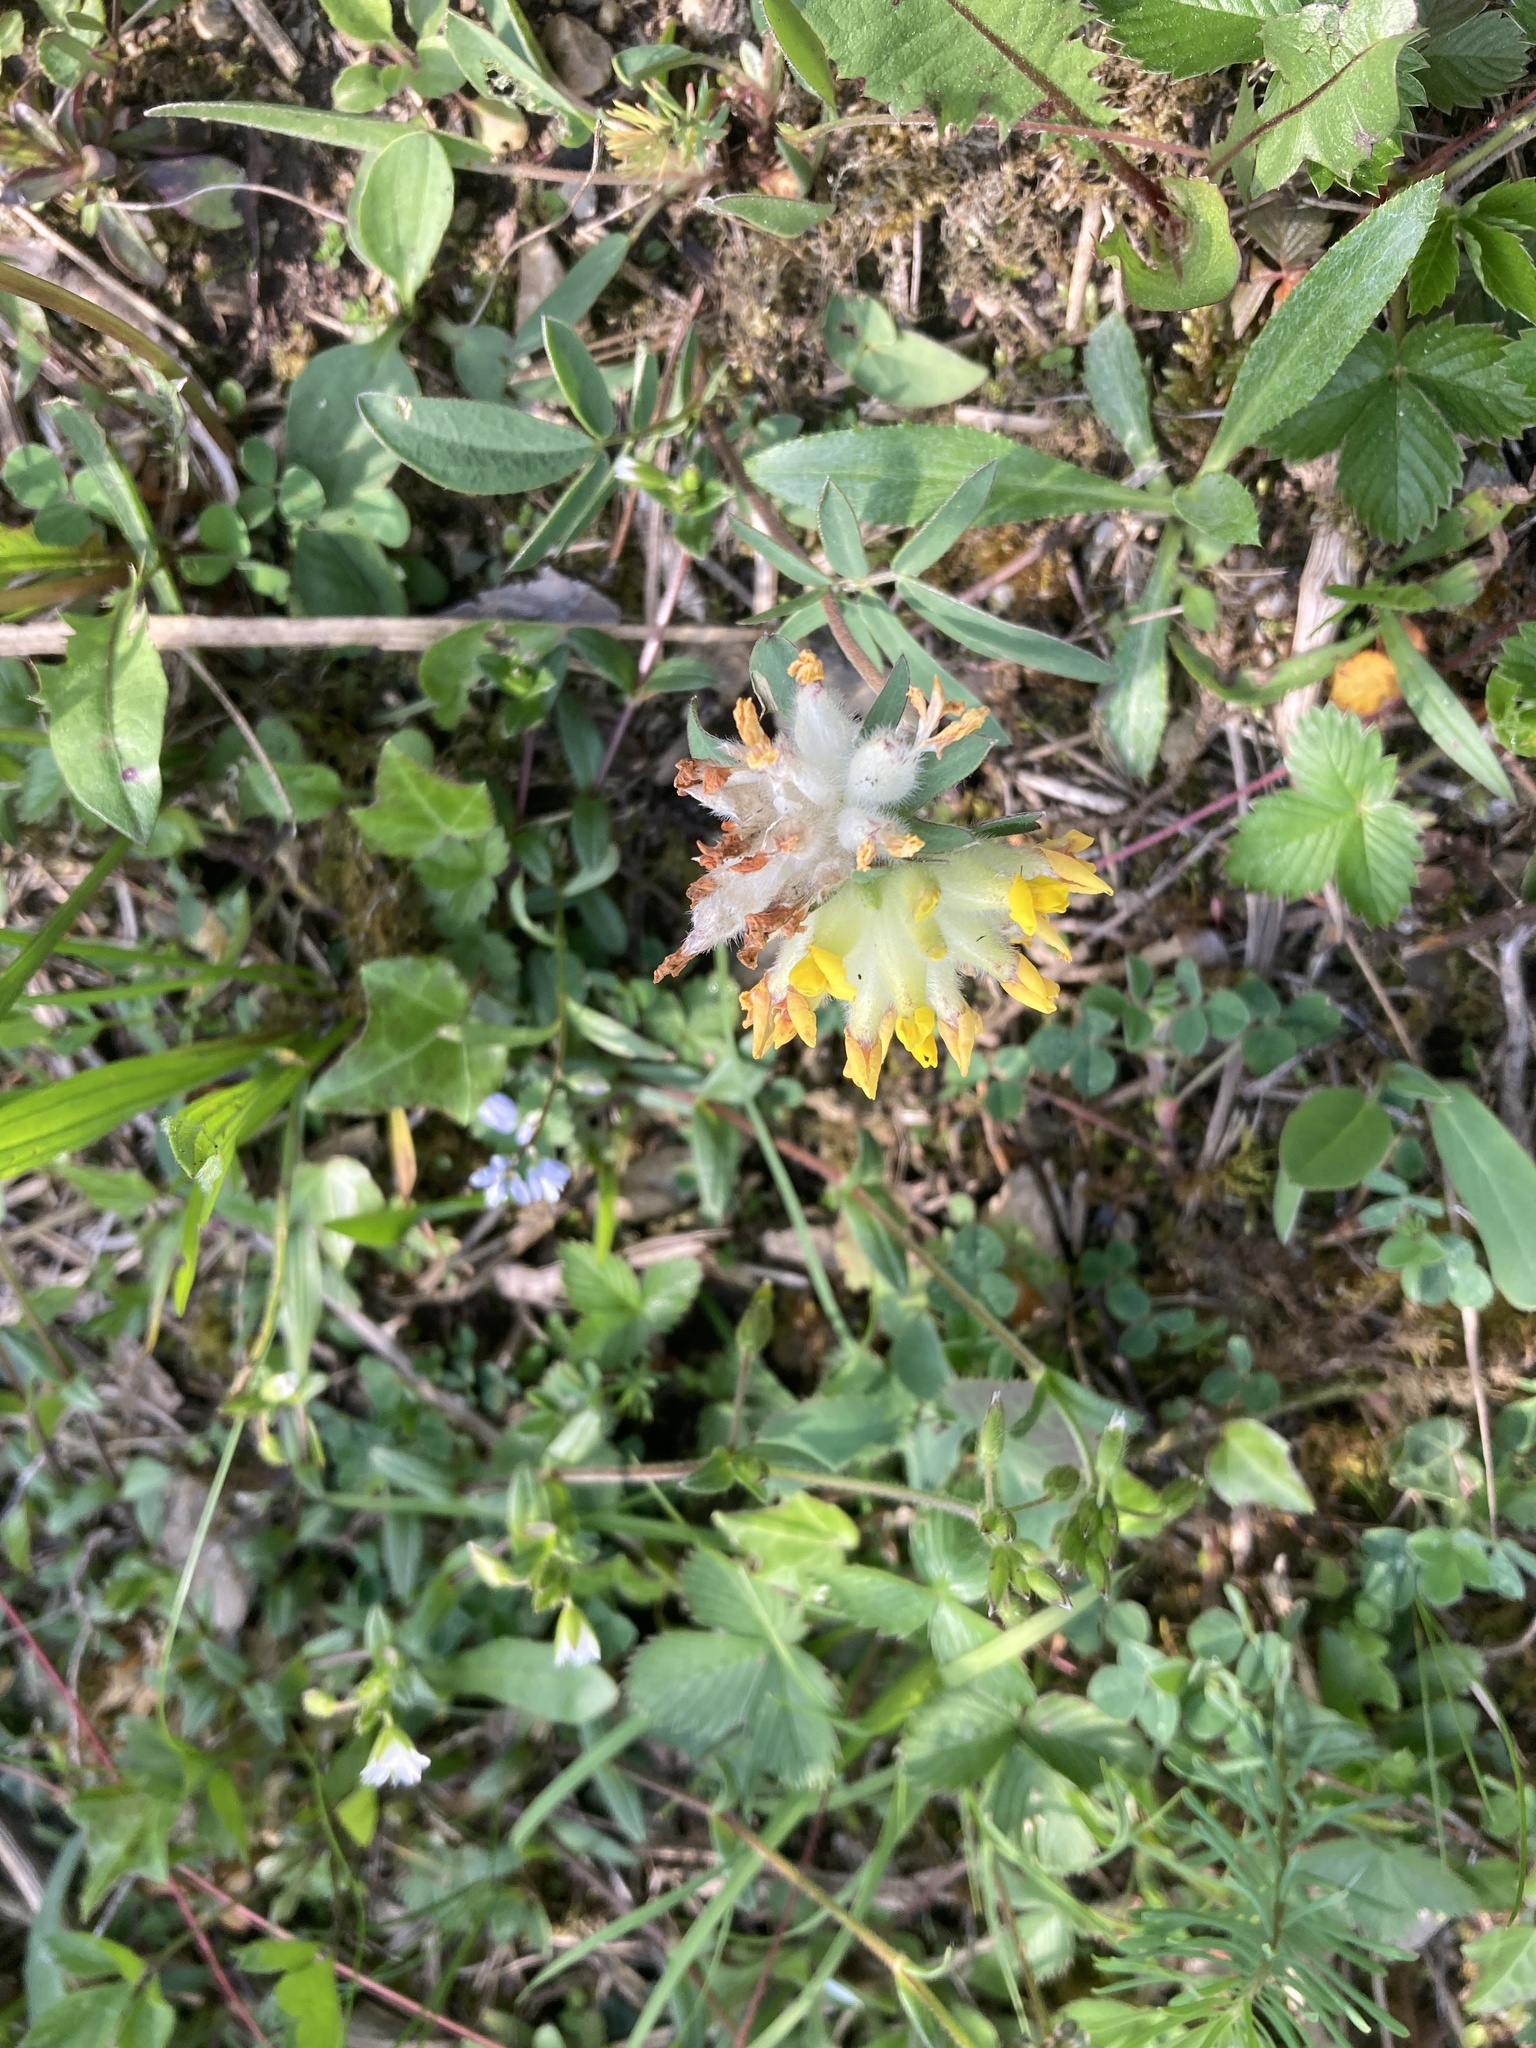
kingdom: Plantae
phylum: Tracheophyta
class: Magnoliopsida
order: Fabales
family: Fabaceae
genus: Anthyllis
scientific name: Anthyllis vulneraria
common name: Kidney vetch
